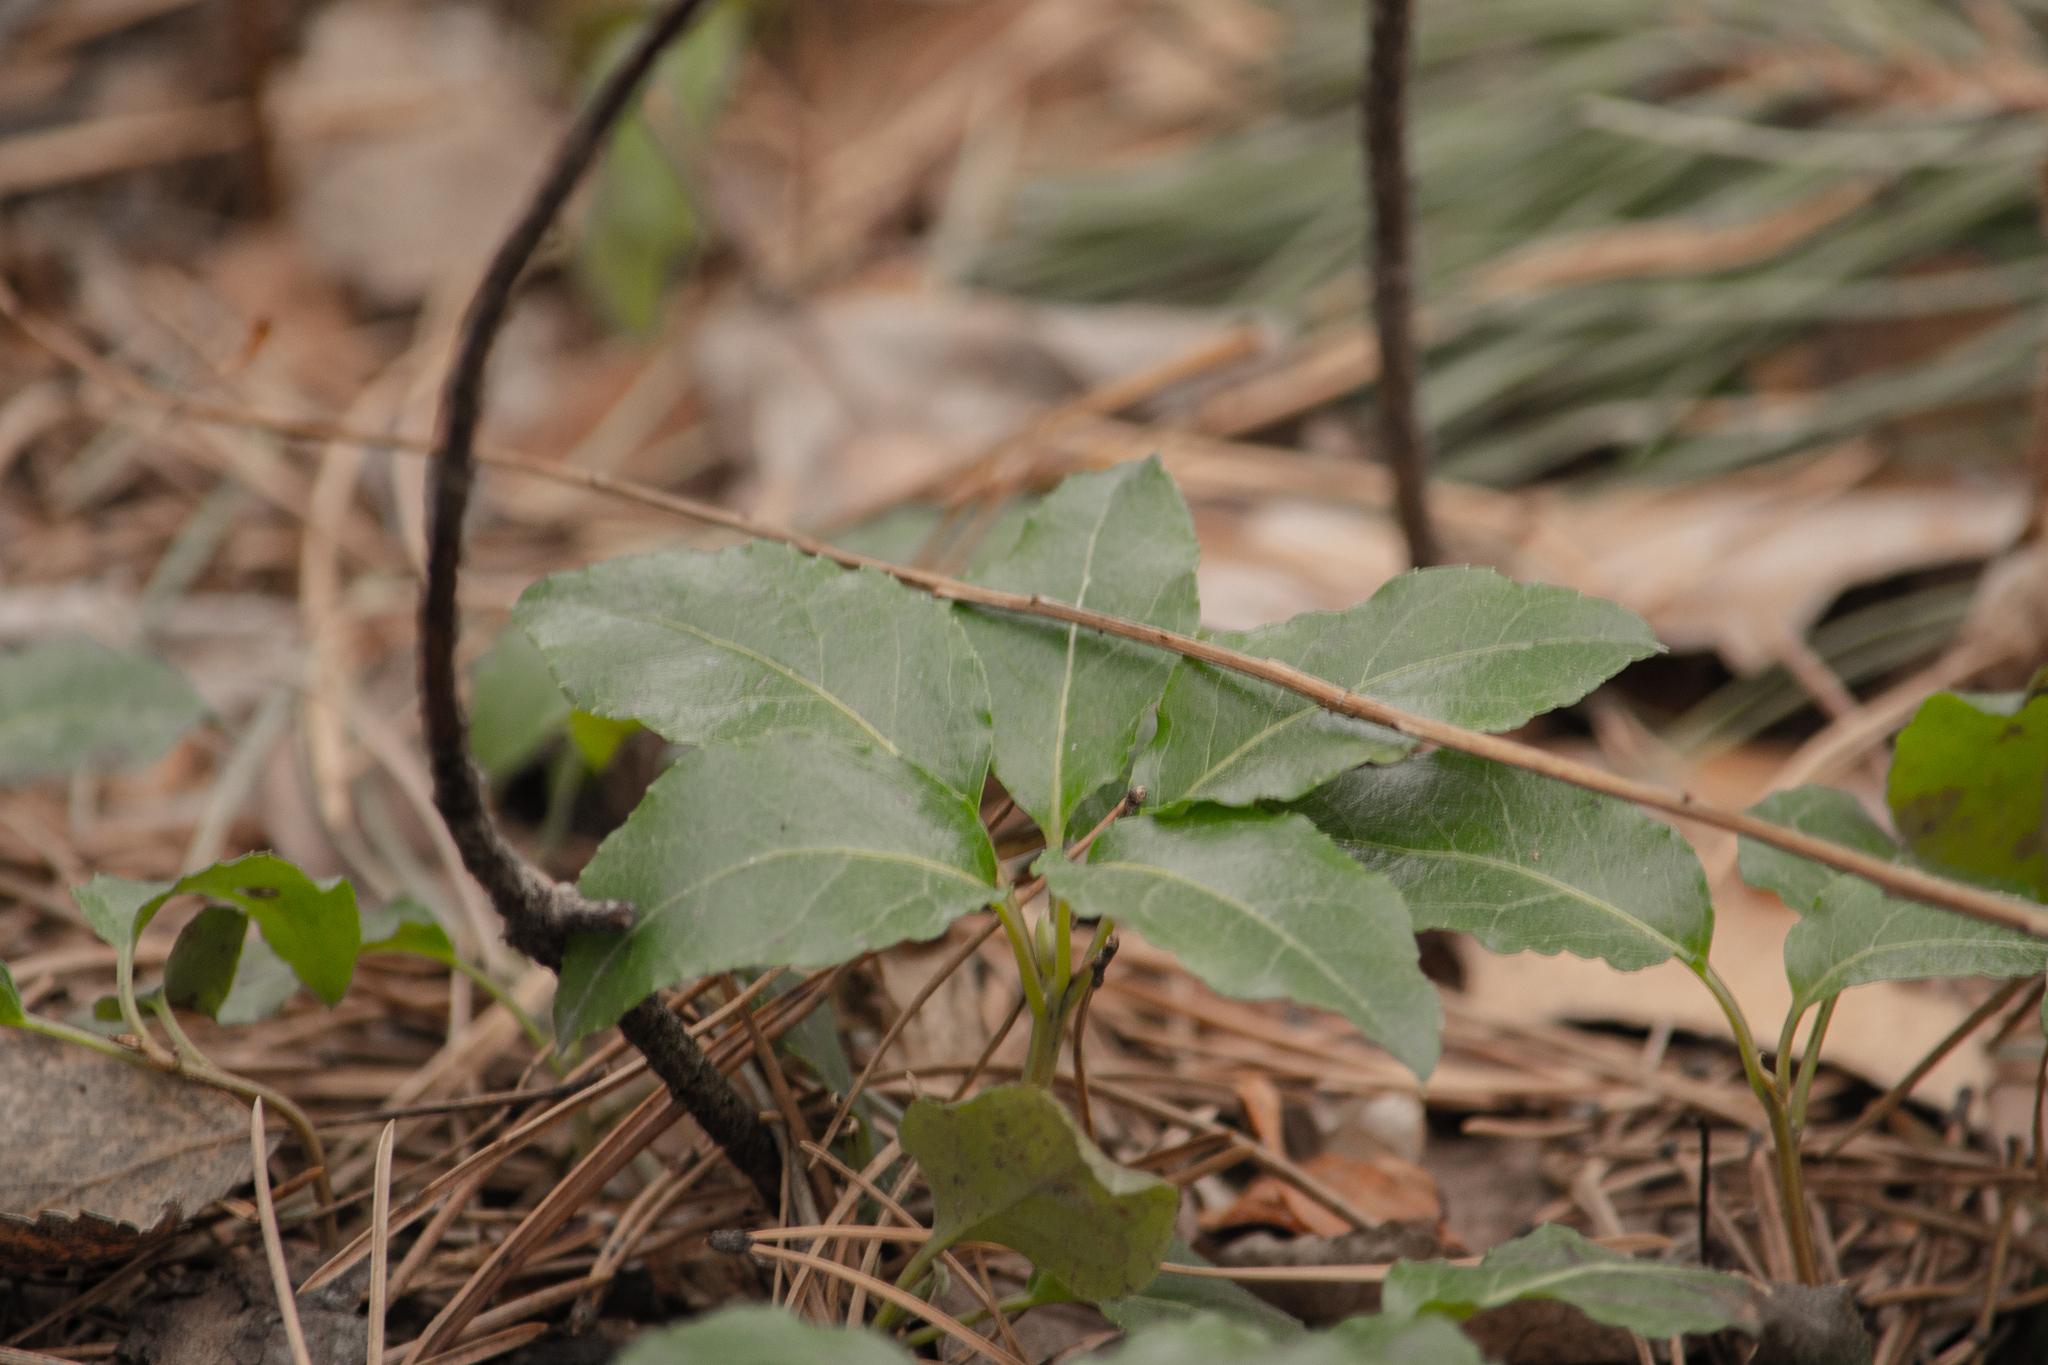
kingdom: Plantae
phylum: Tracheophyta
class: Magnoliopsida
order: Ericales
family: Ericaceae
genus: Orthilia
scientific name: Orthilia secunda
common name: One-sided orthilia
